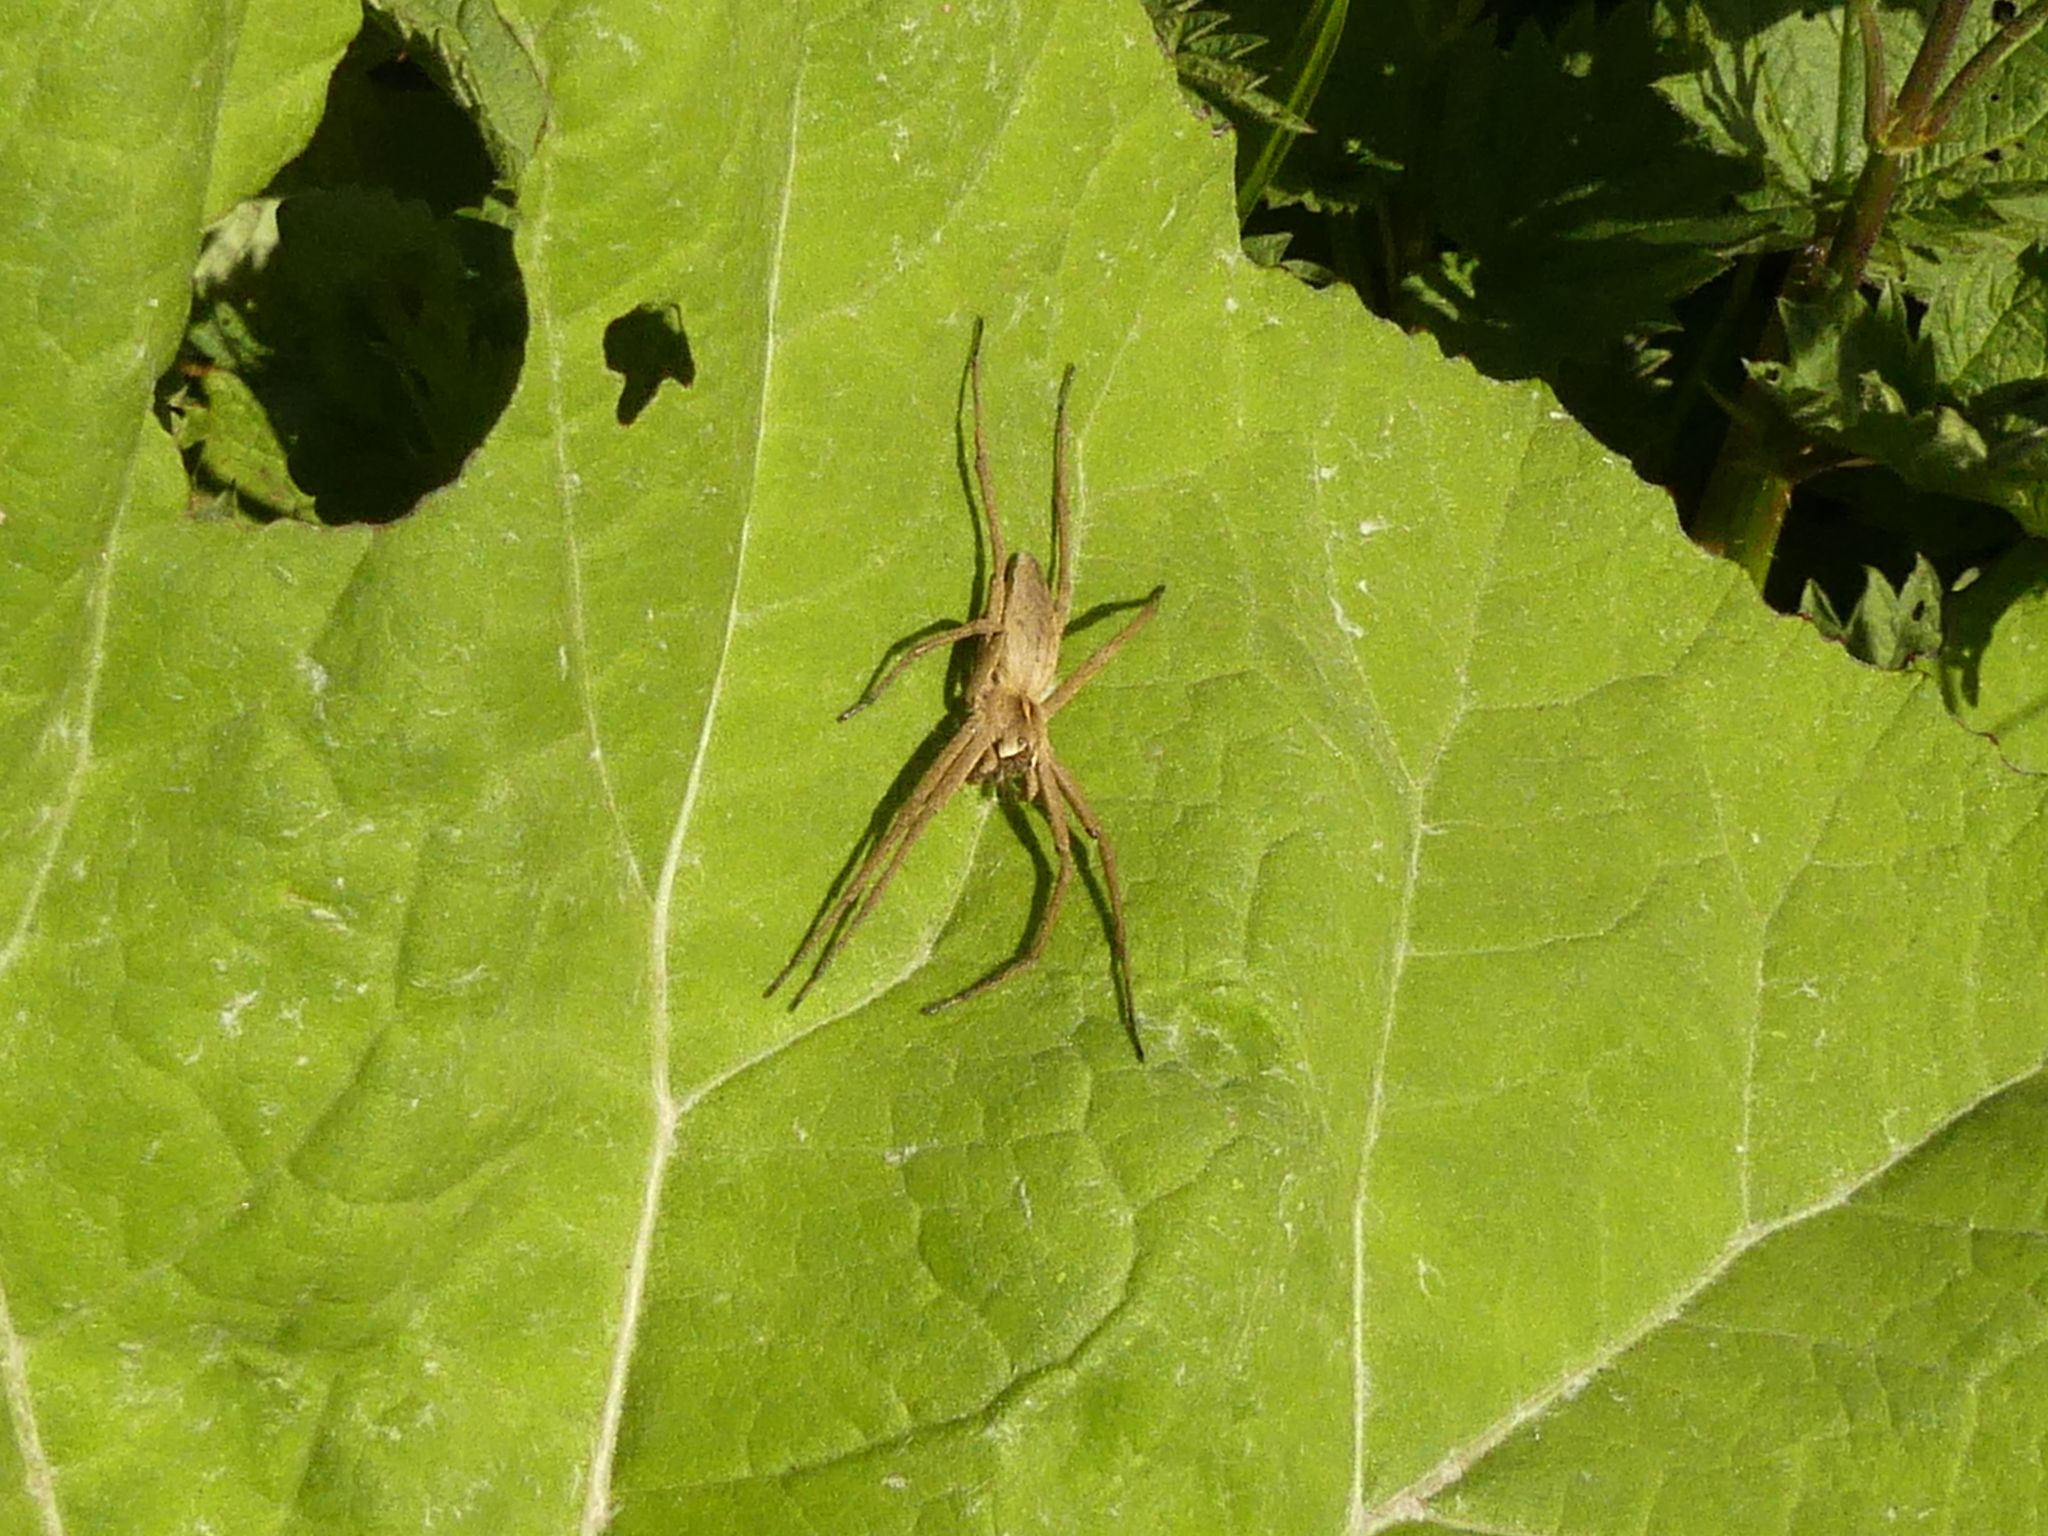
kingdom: Animalia
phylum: Arthropoda
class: Arachnida
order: Araneae
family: Pisauridae
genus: Pisaura
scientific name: Pisaura mirabilis
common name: Tent spider
